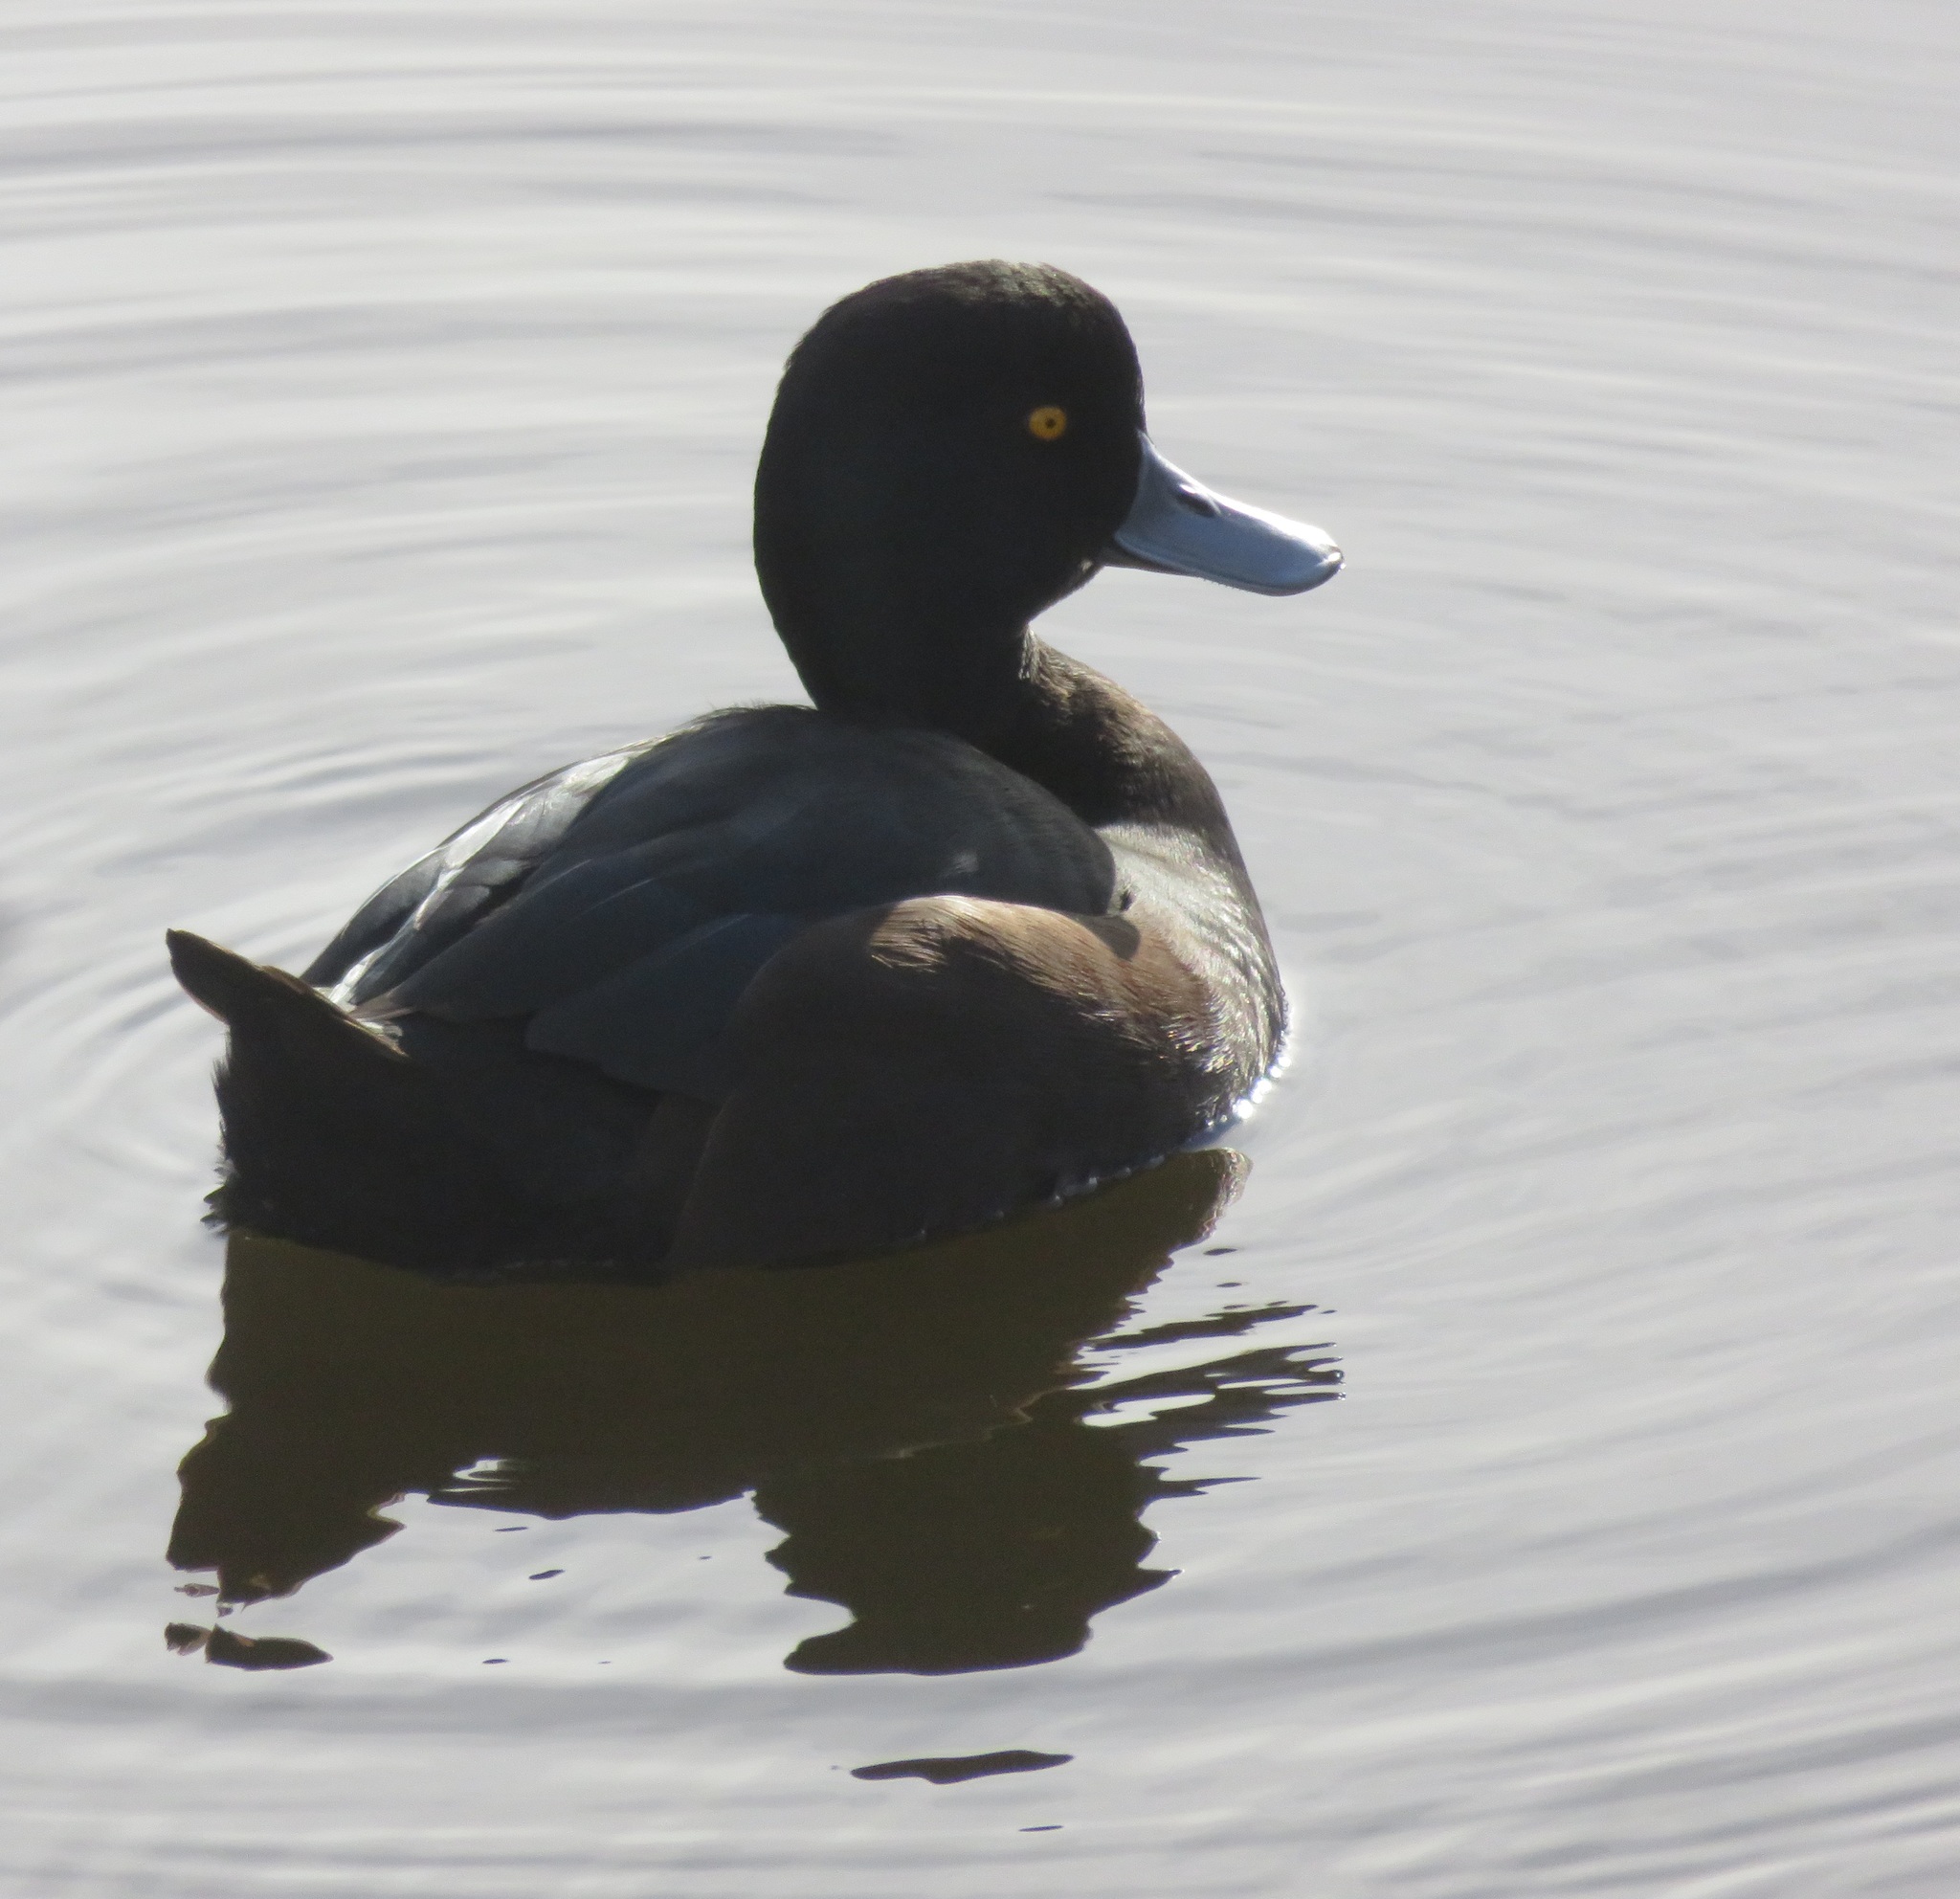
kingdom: Animalia
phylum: Chordata
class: Aves
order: Anseriformes
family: Anatidae
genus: Aythya
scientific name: Aythya novaeseelandiae
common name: New zealand scaup
